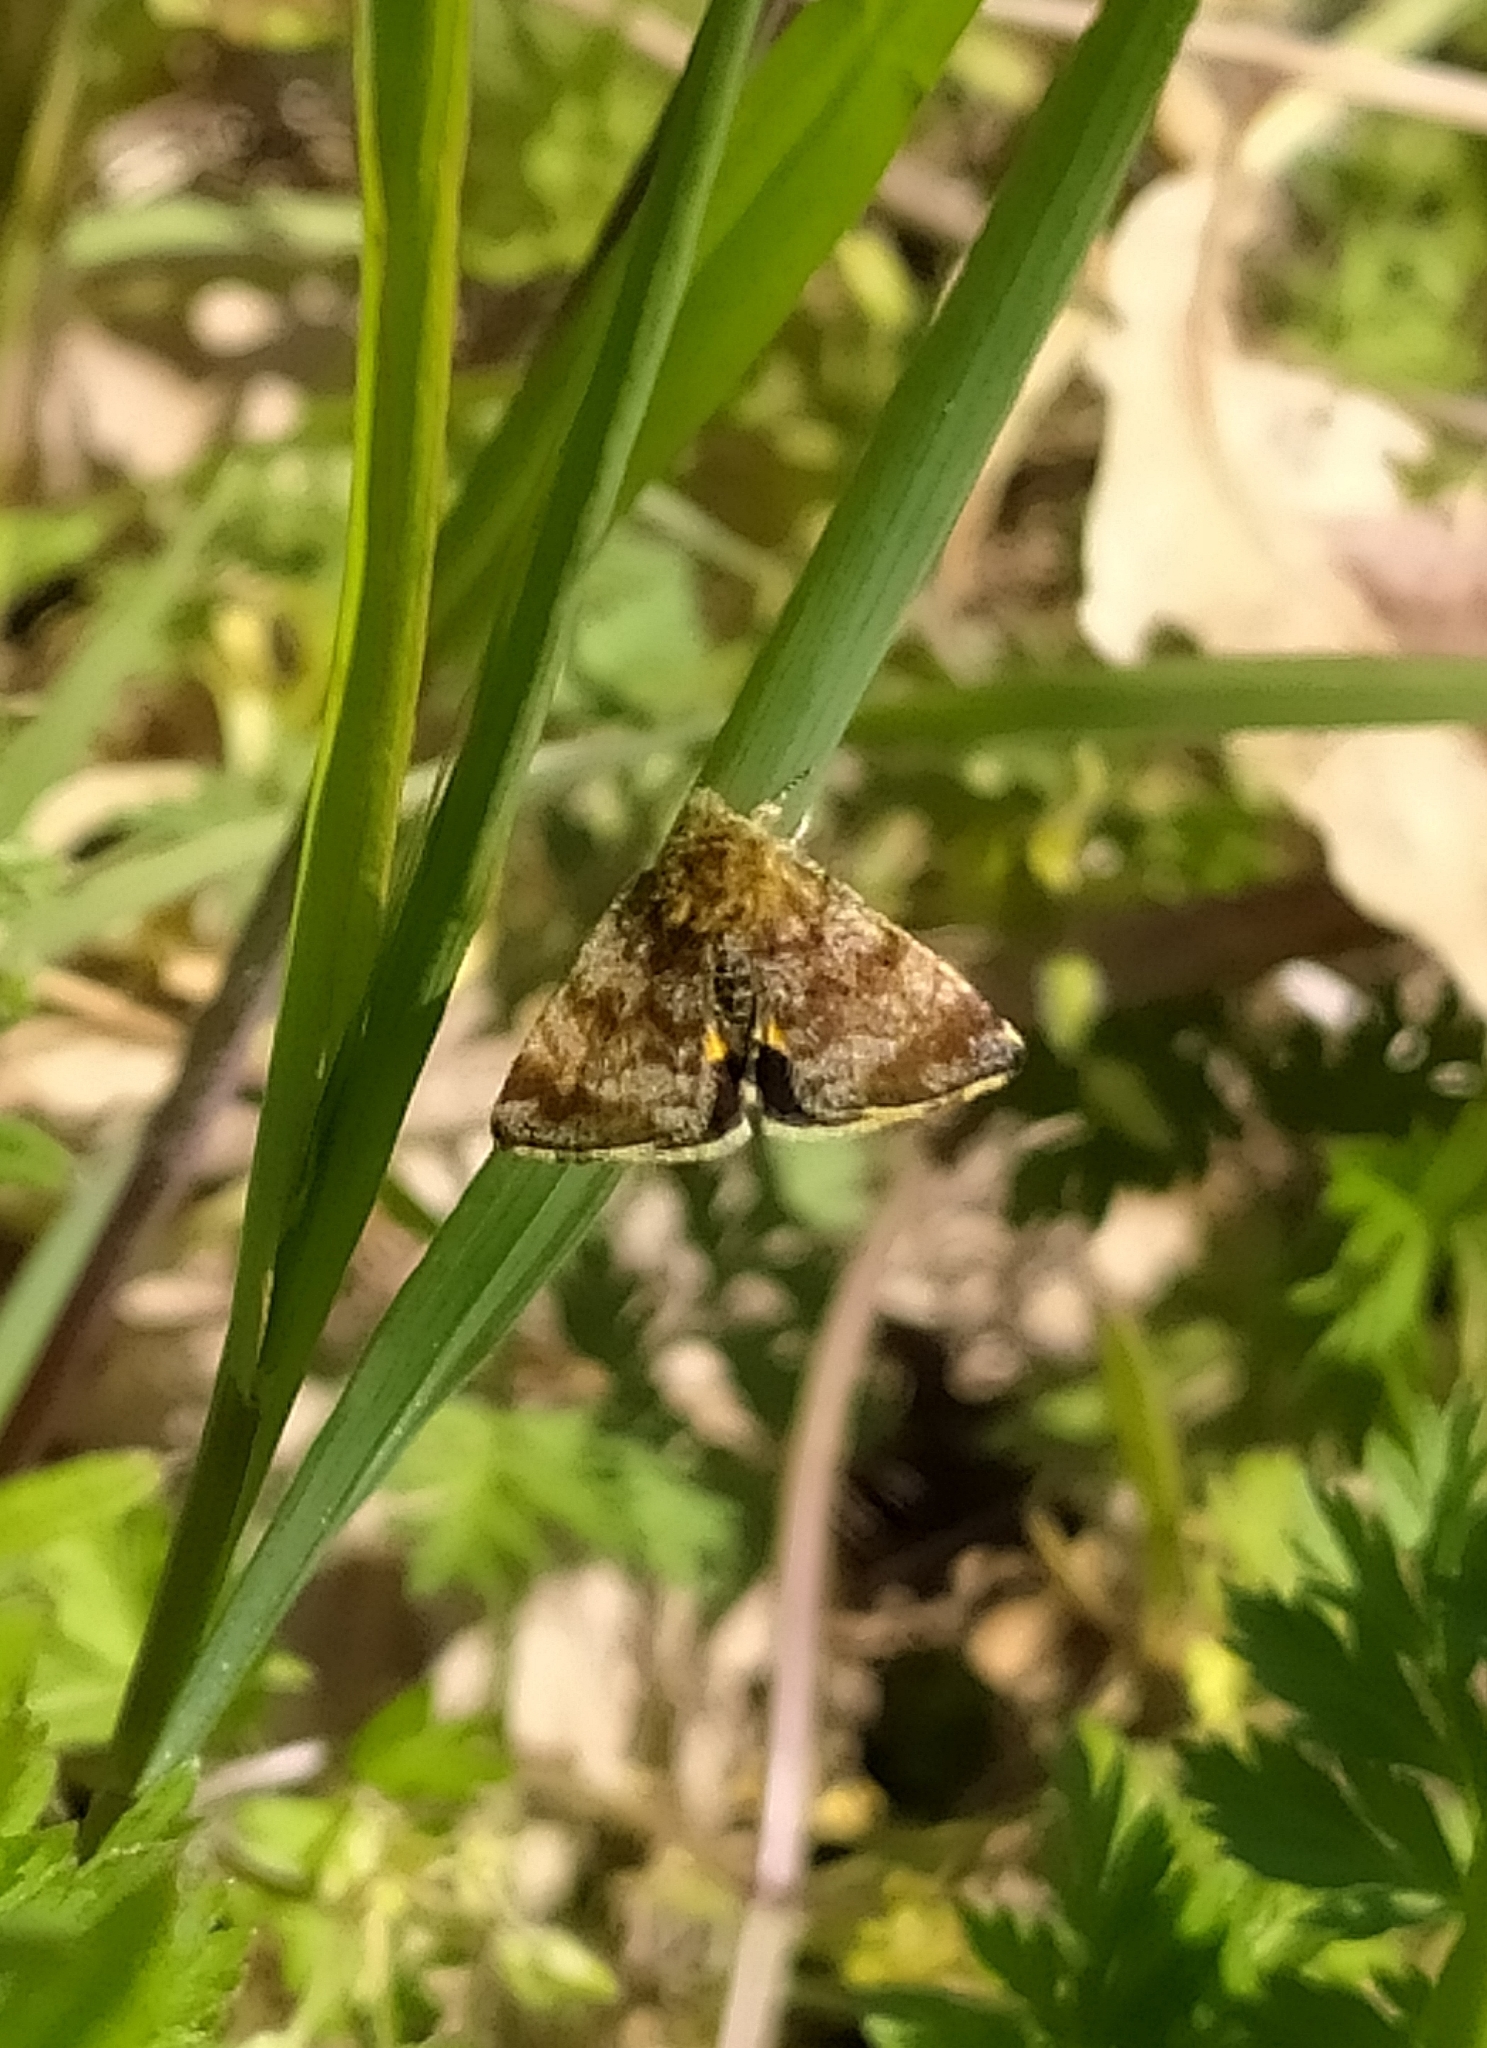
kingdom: Animalia
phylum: Arthropoda
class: Insecta
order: Lepidoptera
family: Noctuidae
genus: Panemeria
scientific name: Panemeria tenebrata
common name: Small yellow underwing
